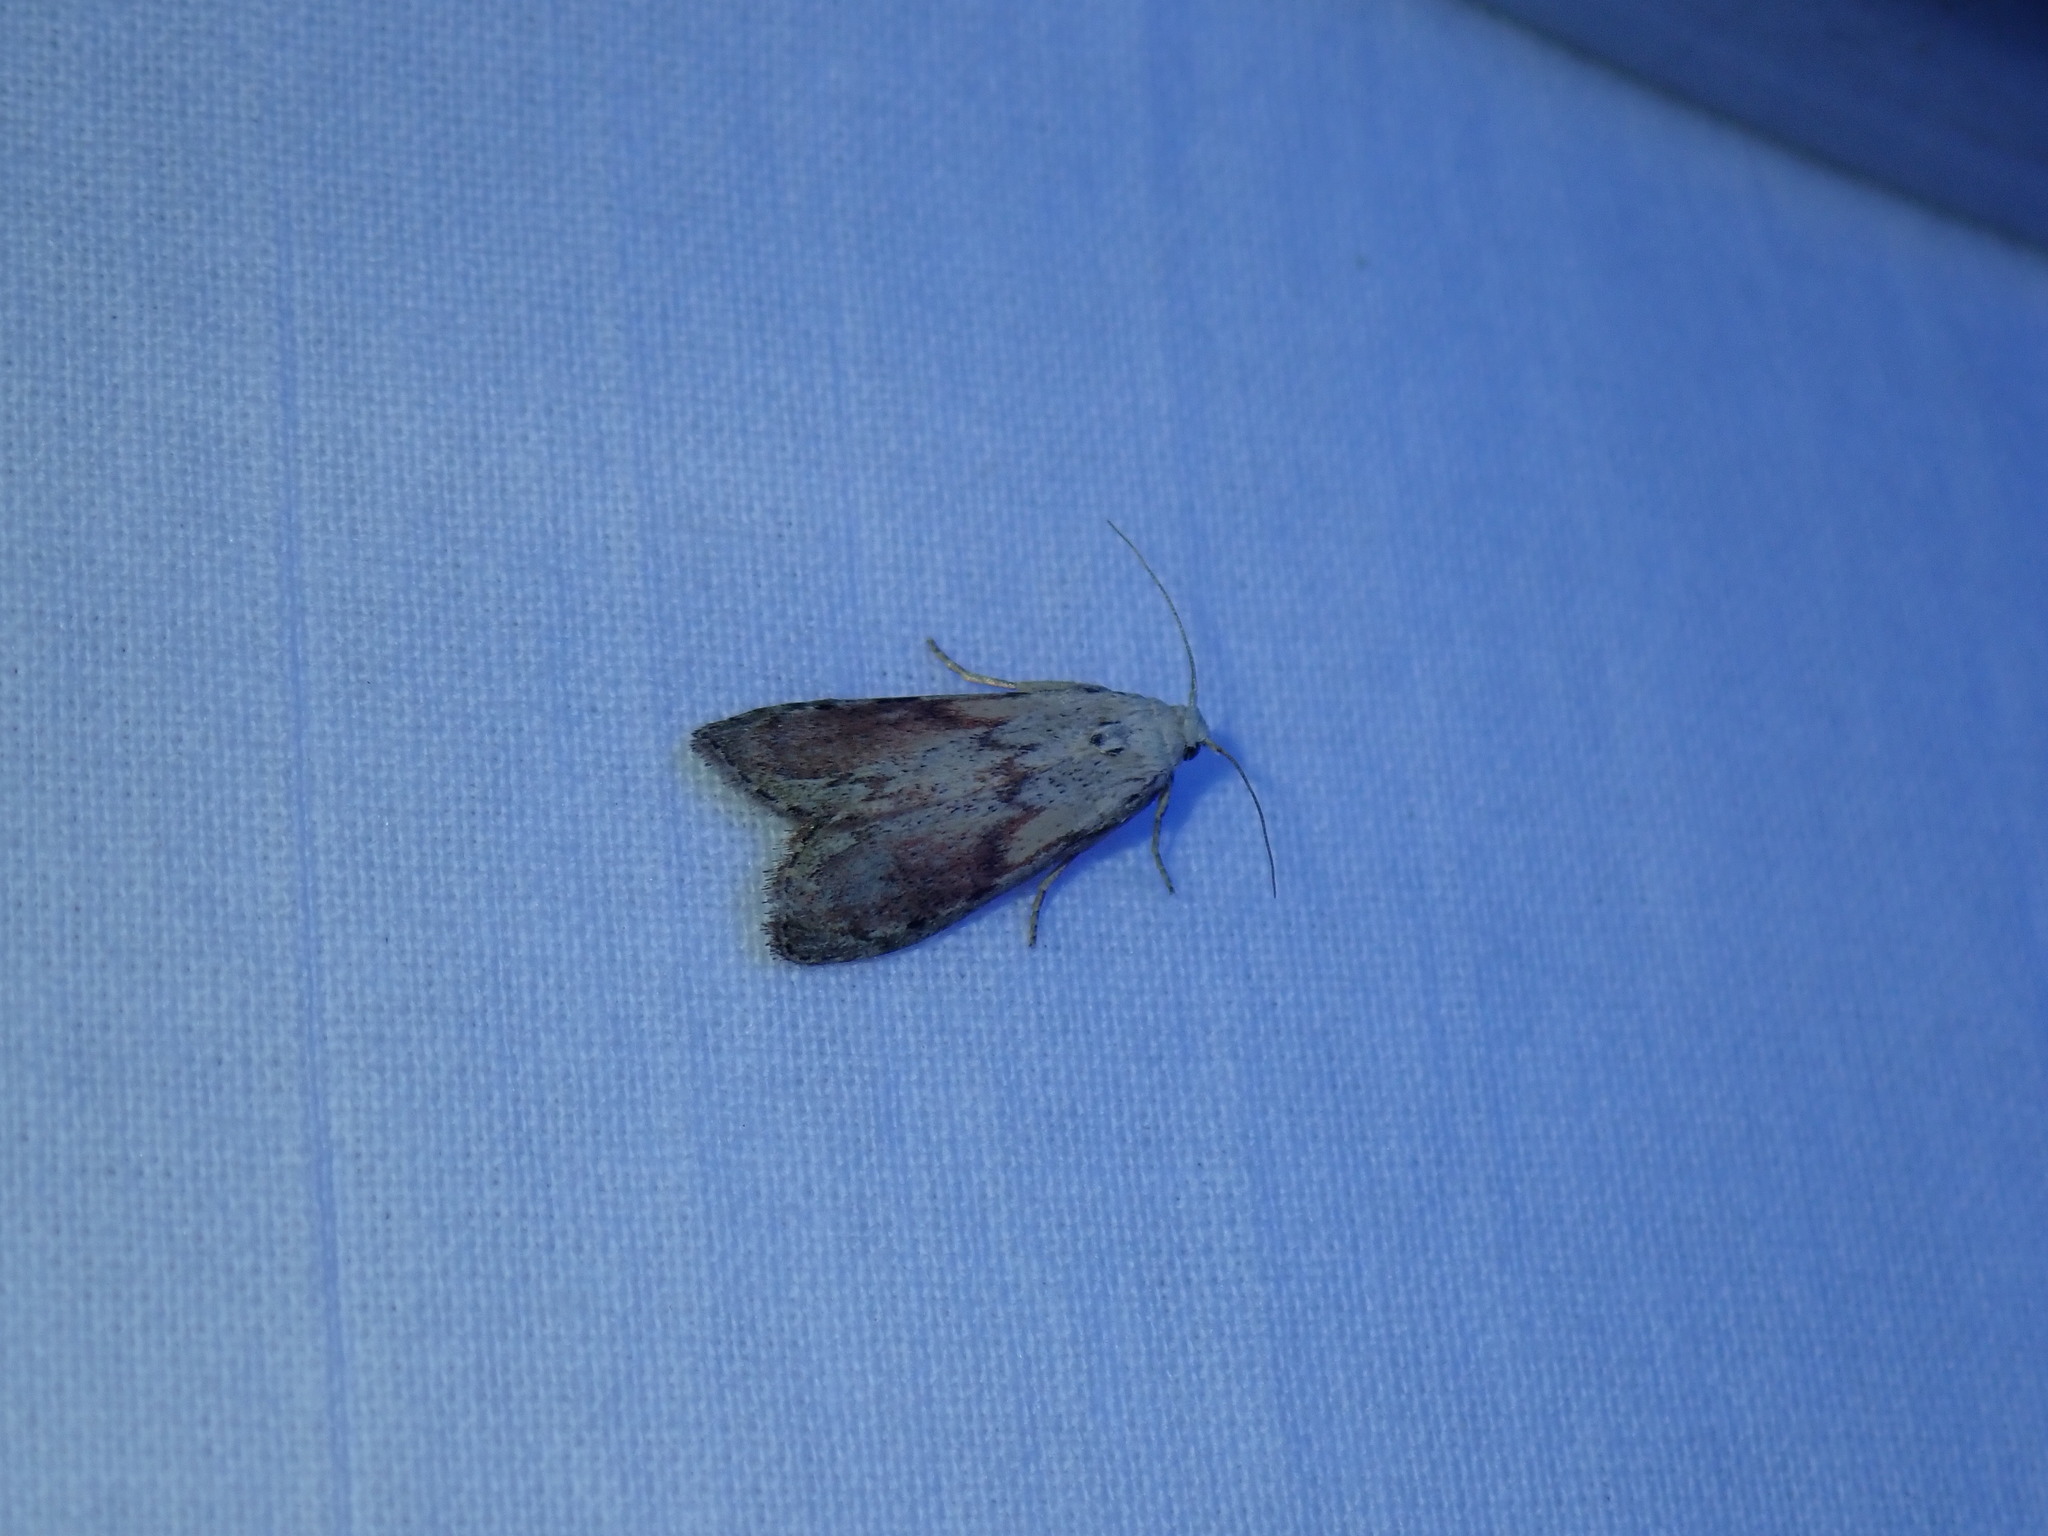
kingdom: Animalia
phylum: Arthropoda
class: Insecta
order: Lepidoptera
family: Pyralidae
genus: Aphomia
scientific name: Aphomia sociella
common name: Bee moth
